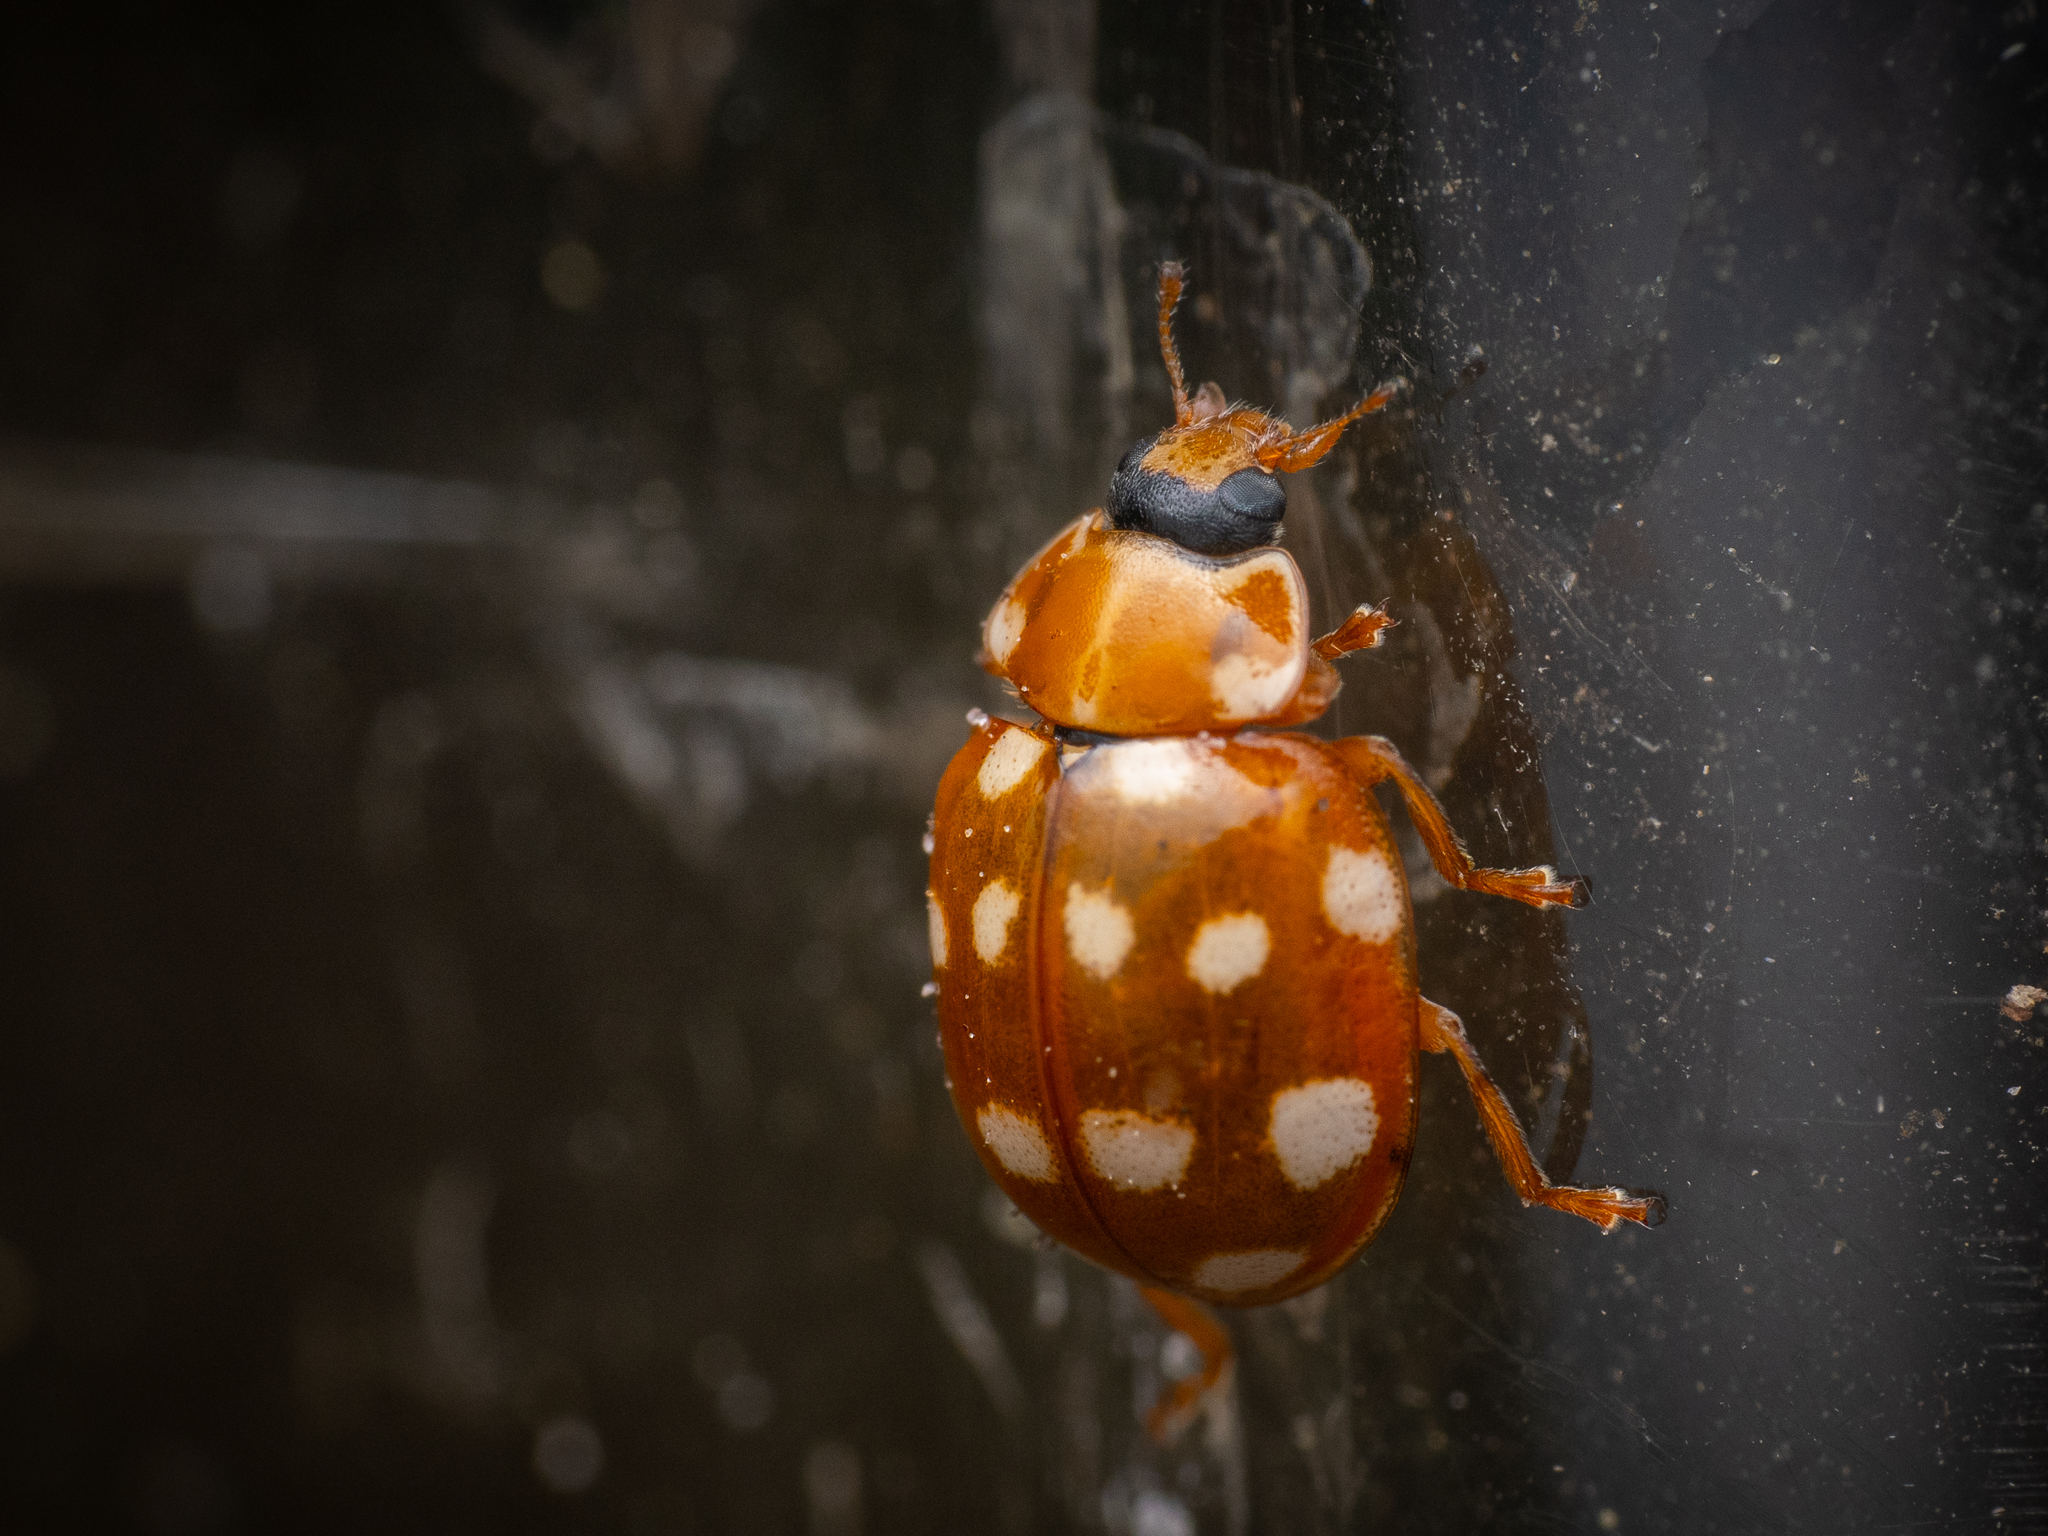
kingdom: Animalia
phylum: Arthropoda
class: Insecta
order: Coleoptera
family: Coccinellidae
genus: Calvia
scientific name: Calvia quatuordecimguttata
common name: Cream-spot ladybird
